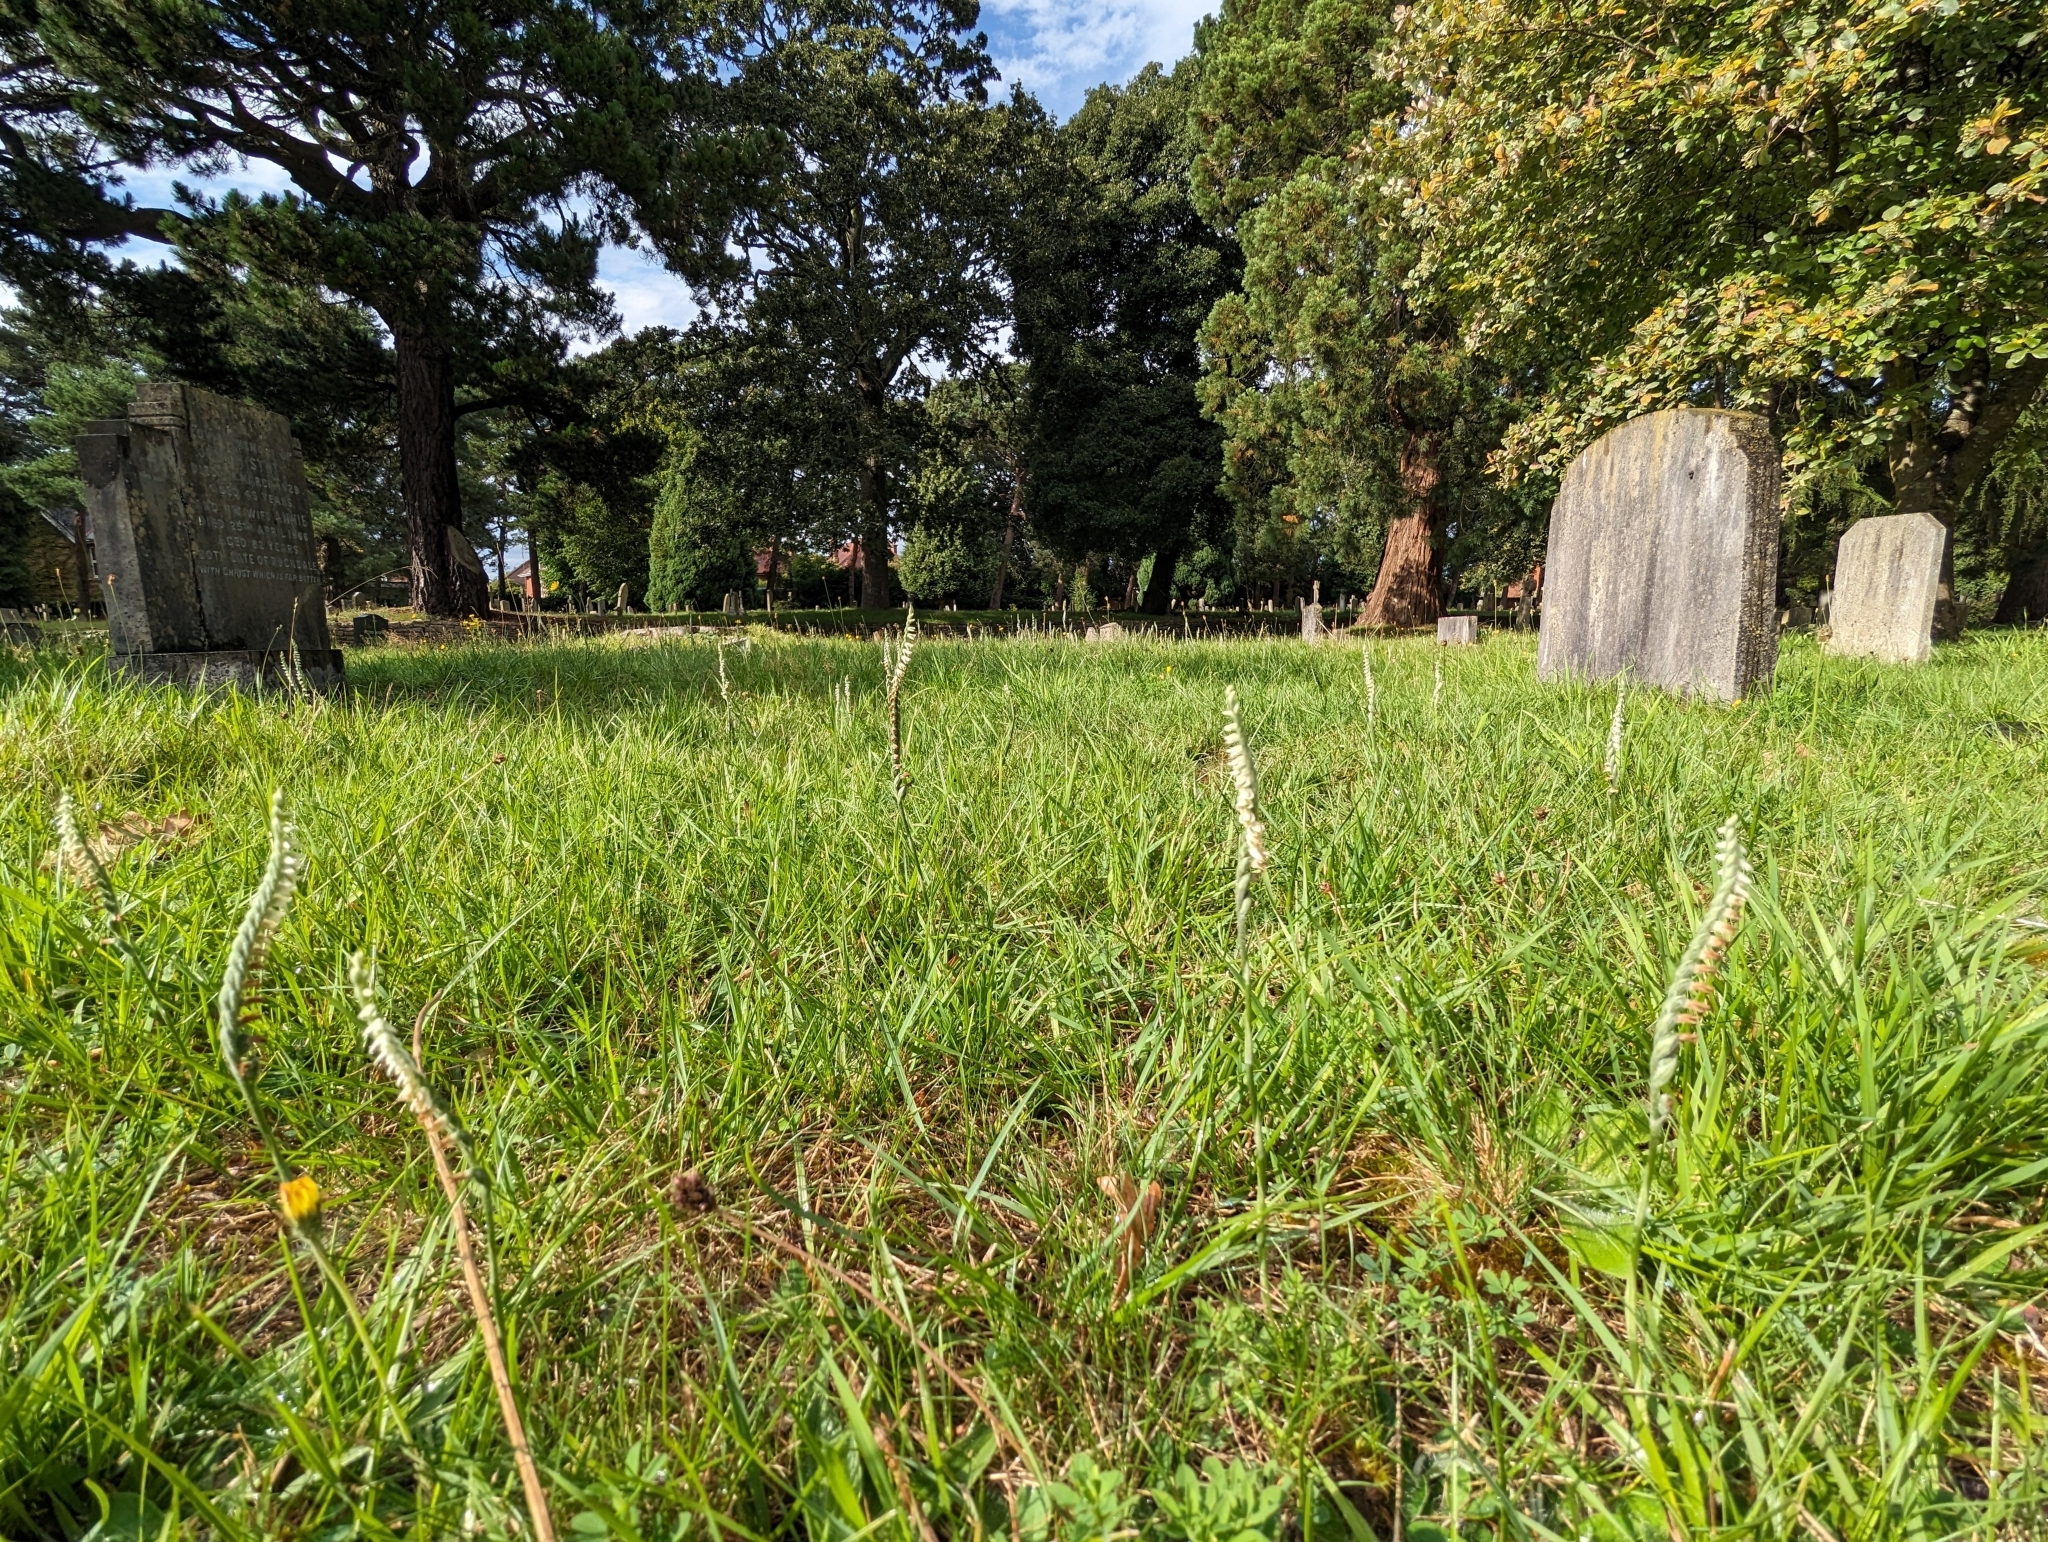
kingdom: Plantae
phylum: Tracheophyta
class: Liliopsida
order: Asparagales
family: Orchidaceae
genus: Spiranthes
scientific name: Spiranthes spiralis
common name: Autumn lady's-tresses
